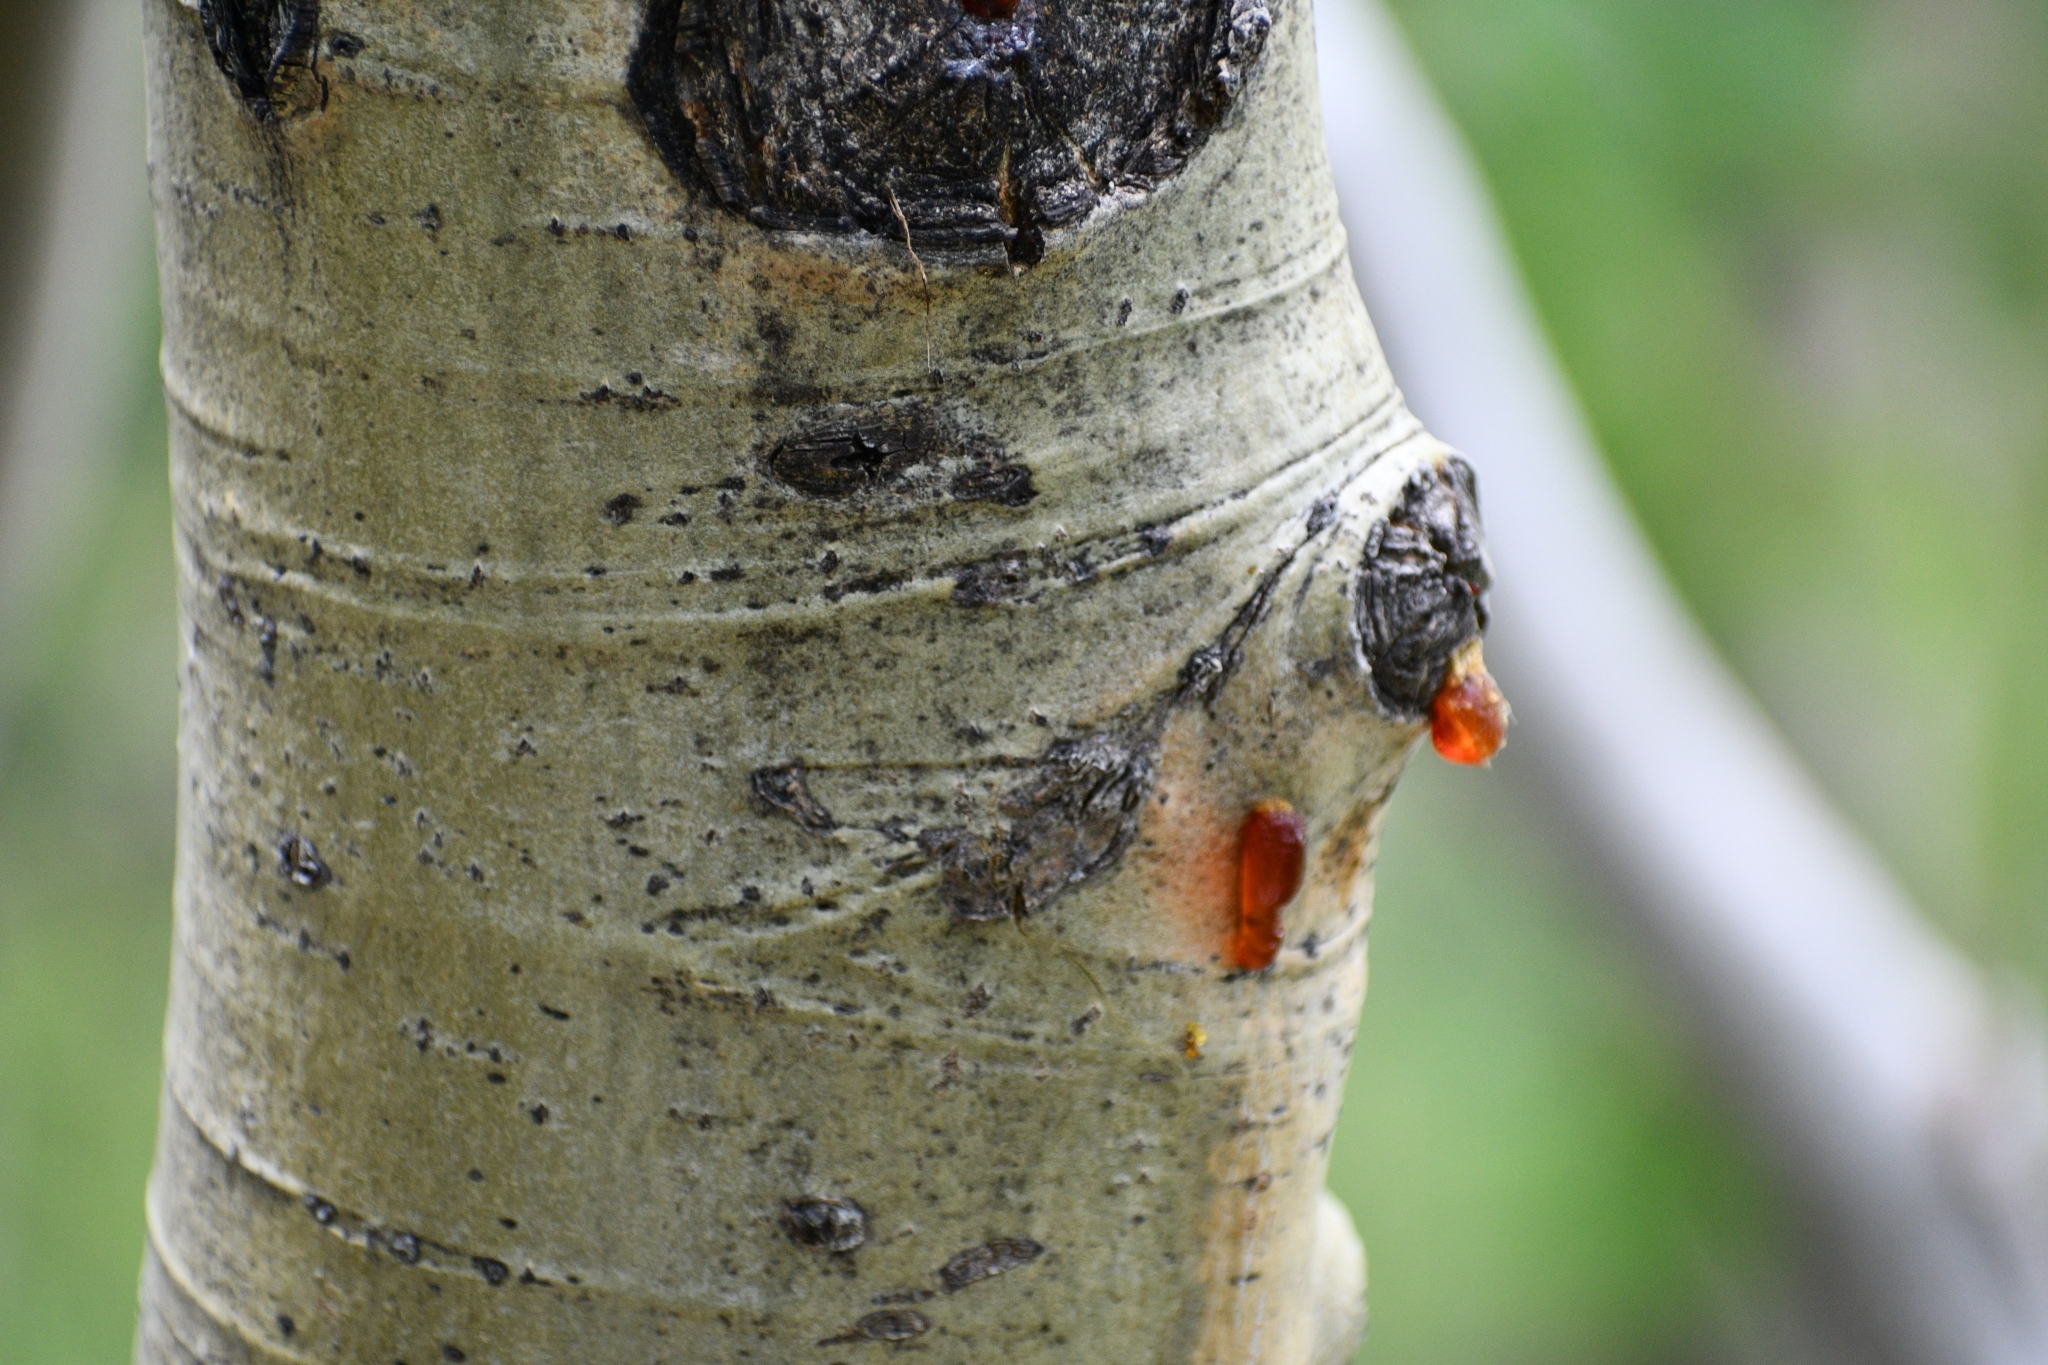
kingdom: Plantae
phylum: Tracheophyta
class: Magnoliopsida
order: Malpighiales
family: Salicaceae
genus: Populus
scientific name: Populus tremuloides
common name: Quaking aspen
